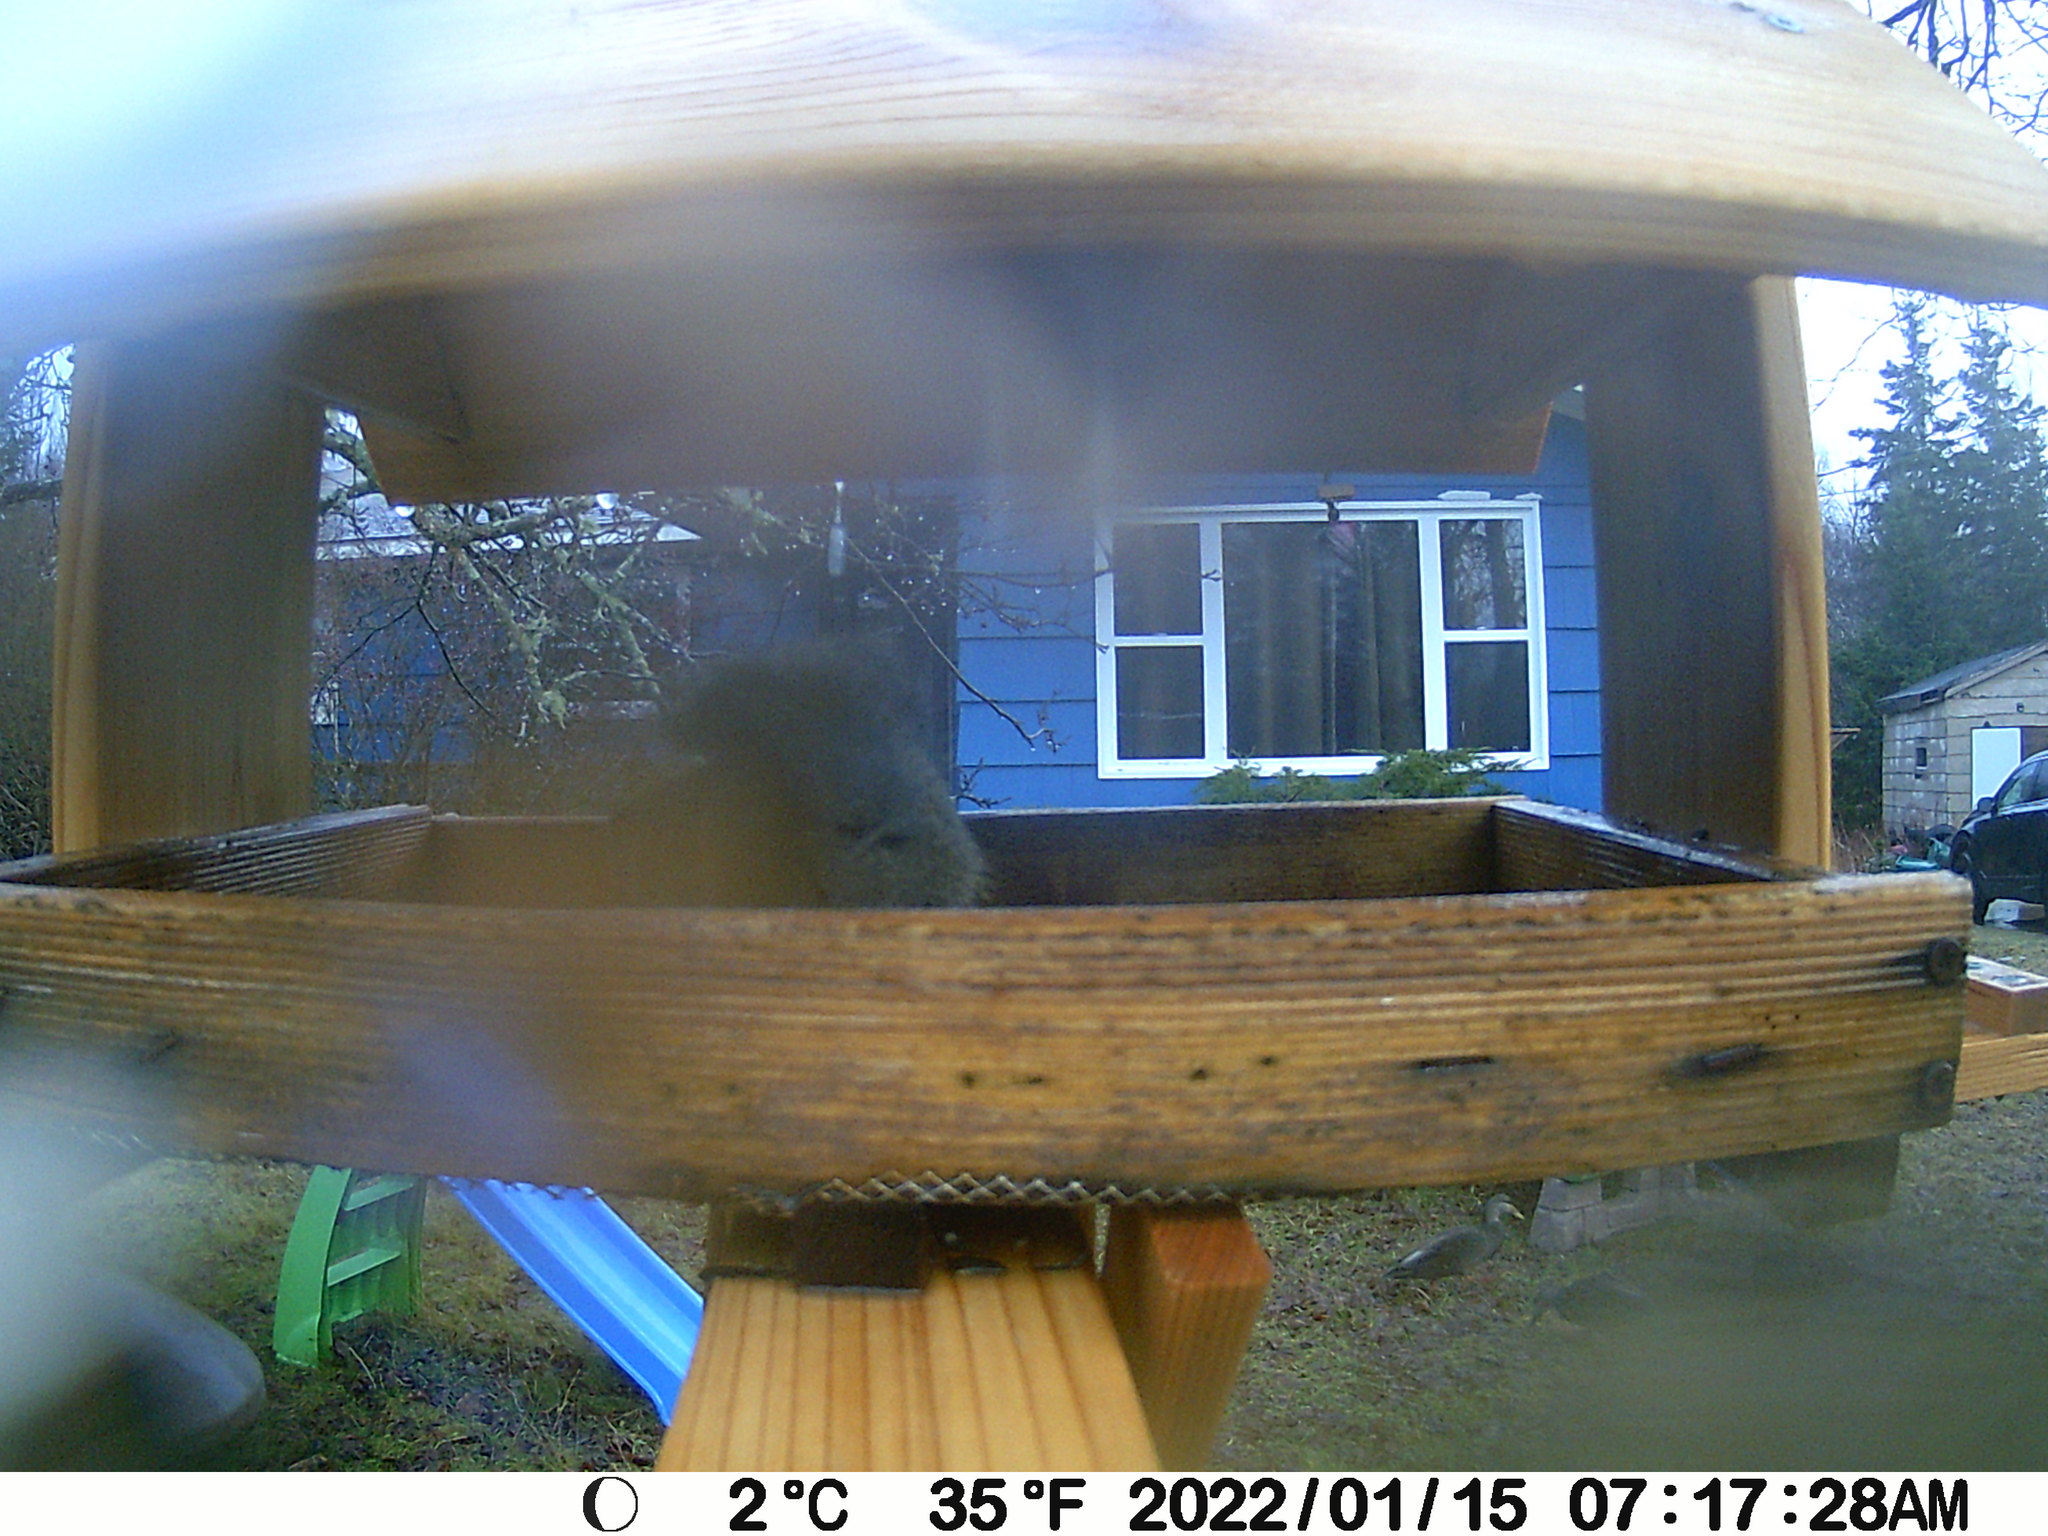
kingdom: Animalia
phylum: Chordata
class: Aves
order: Anseriformes
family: Anatidae
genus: Anas
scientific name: Anas rubripes
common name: American black duck
